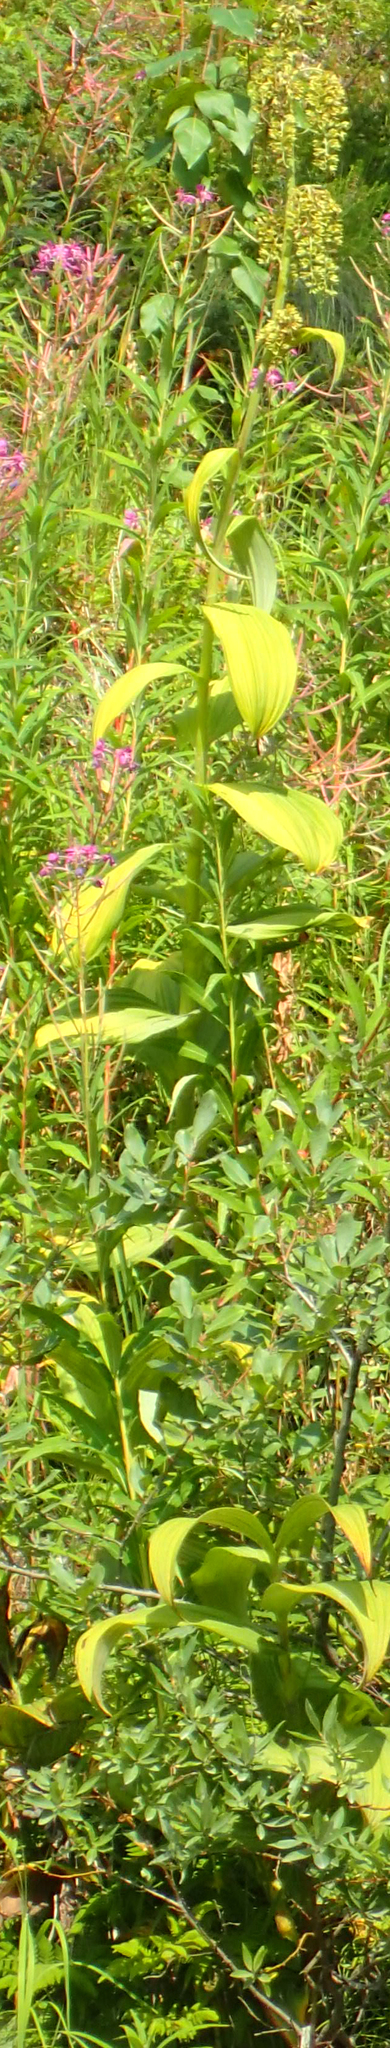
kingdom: Plantae
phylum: Tracheophyta
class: Liliopsida
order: Liliales
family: Melanthiaceae
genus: Veratrum
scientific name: Veratrum viride
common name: American false hellebore
